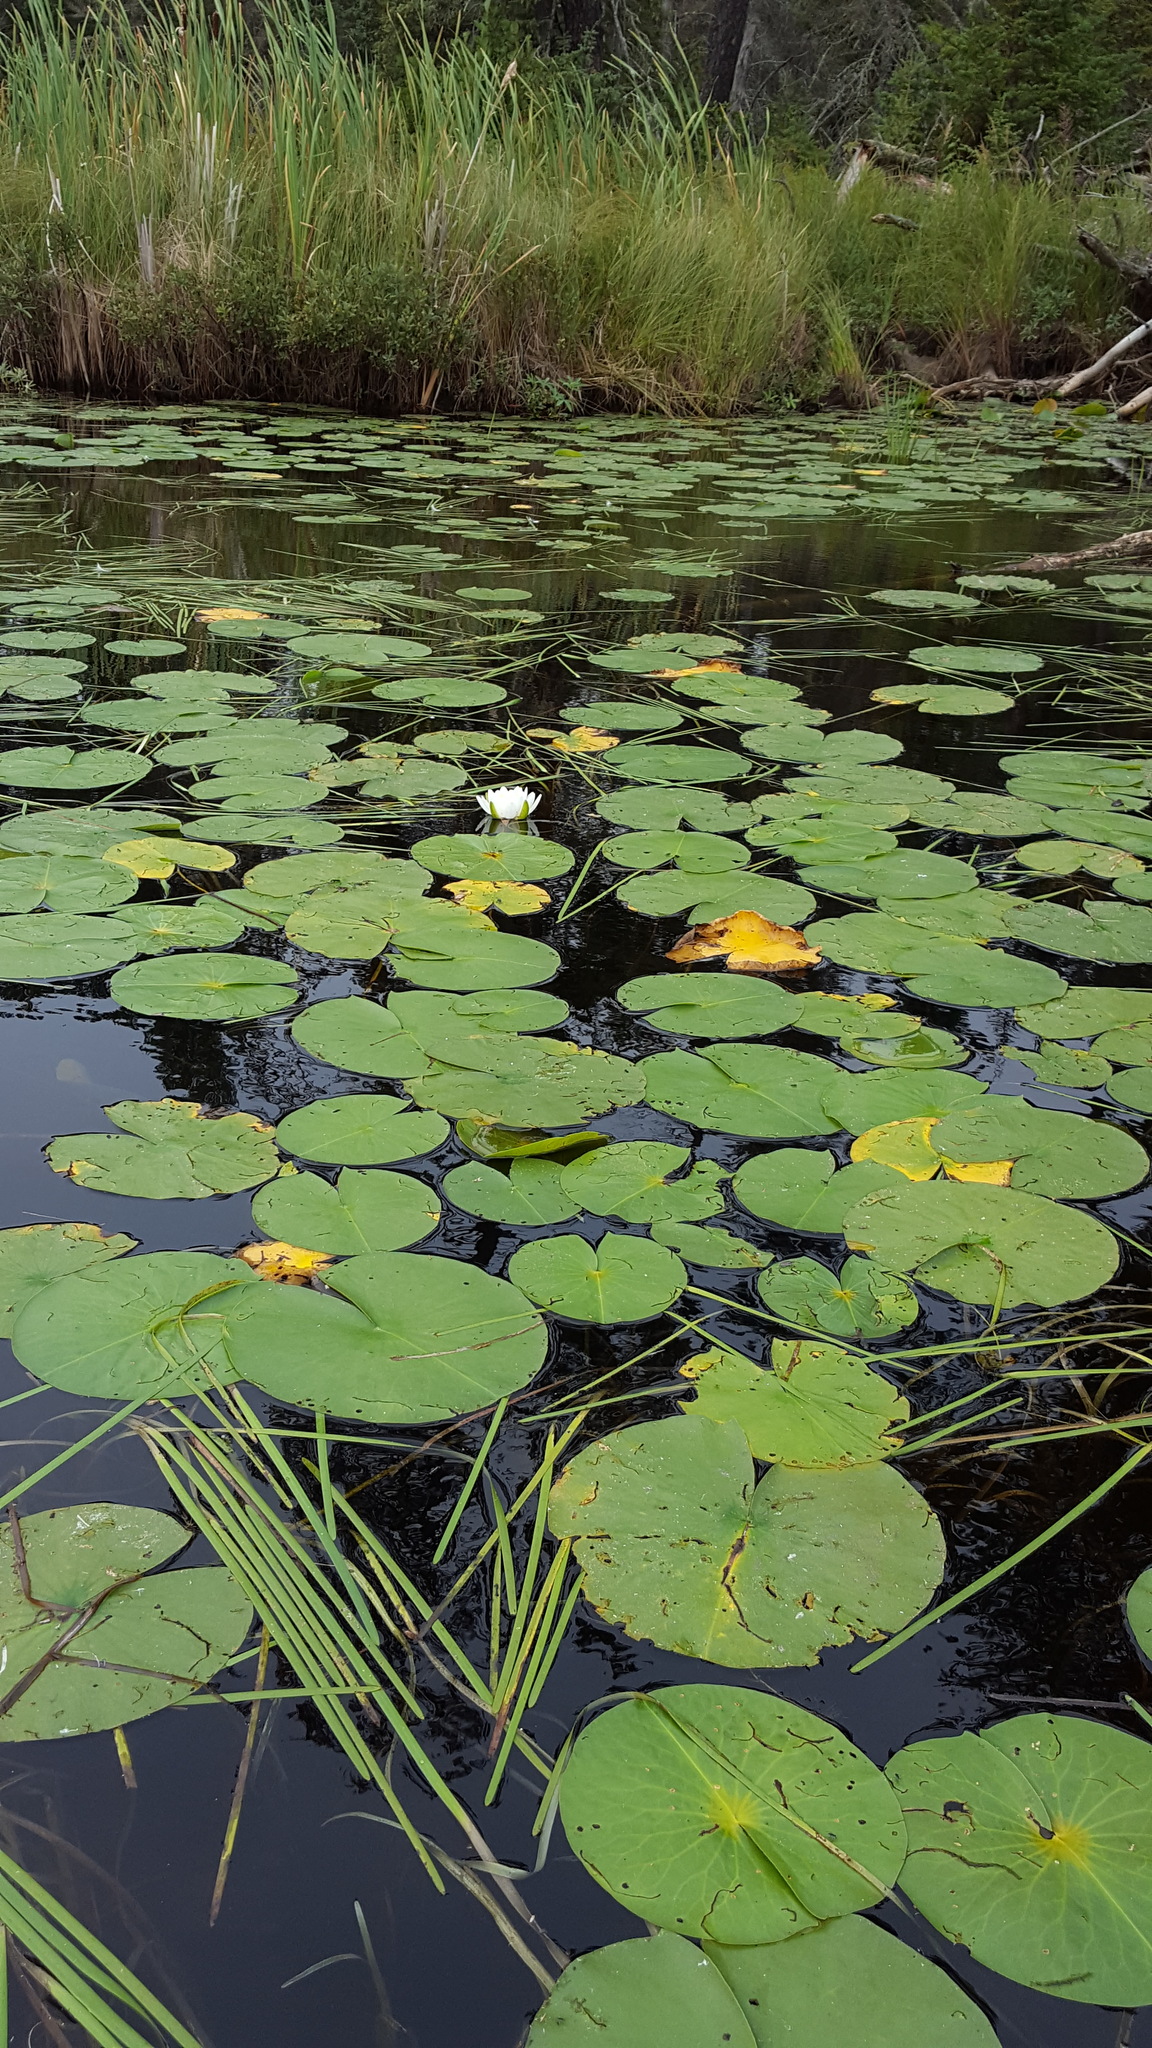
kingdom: Plantae
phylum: Tracheophyta
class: Magnoliopsida
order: Nymphaeales
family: Nymphaeaceae
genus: Nymphaea
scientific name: Nymphaea odorata
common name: Fragrant water-lily
